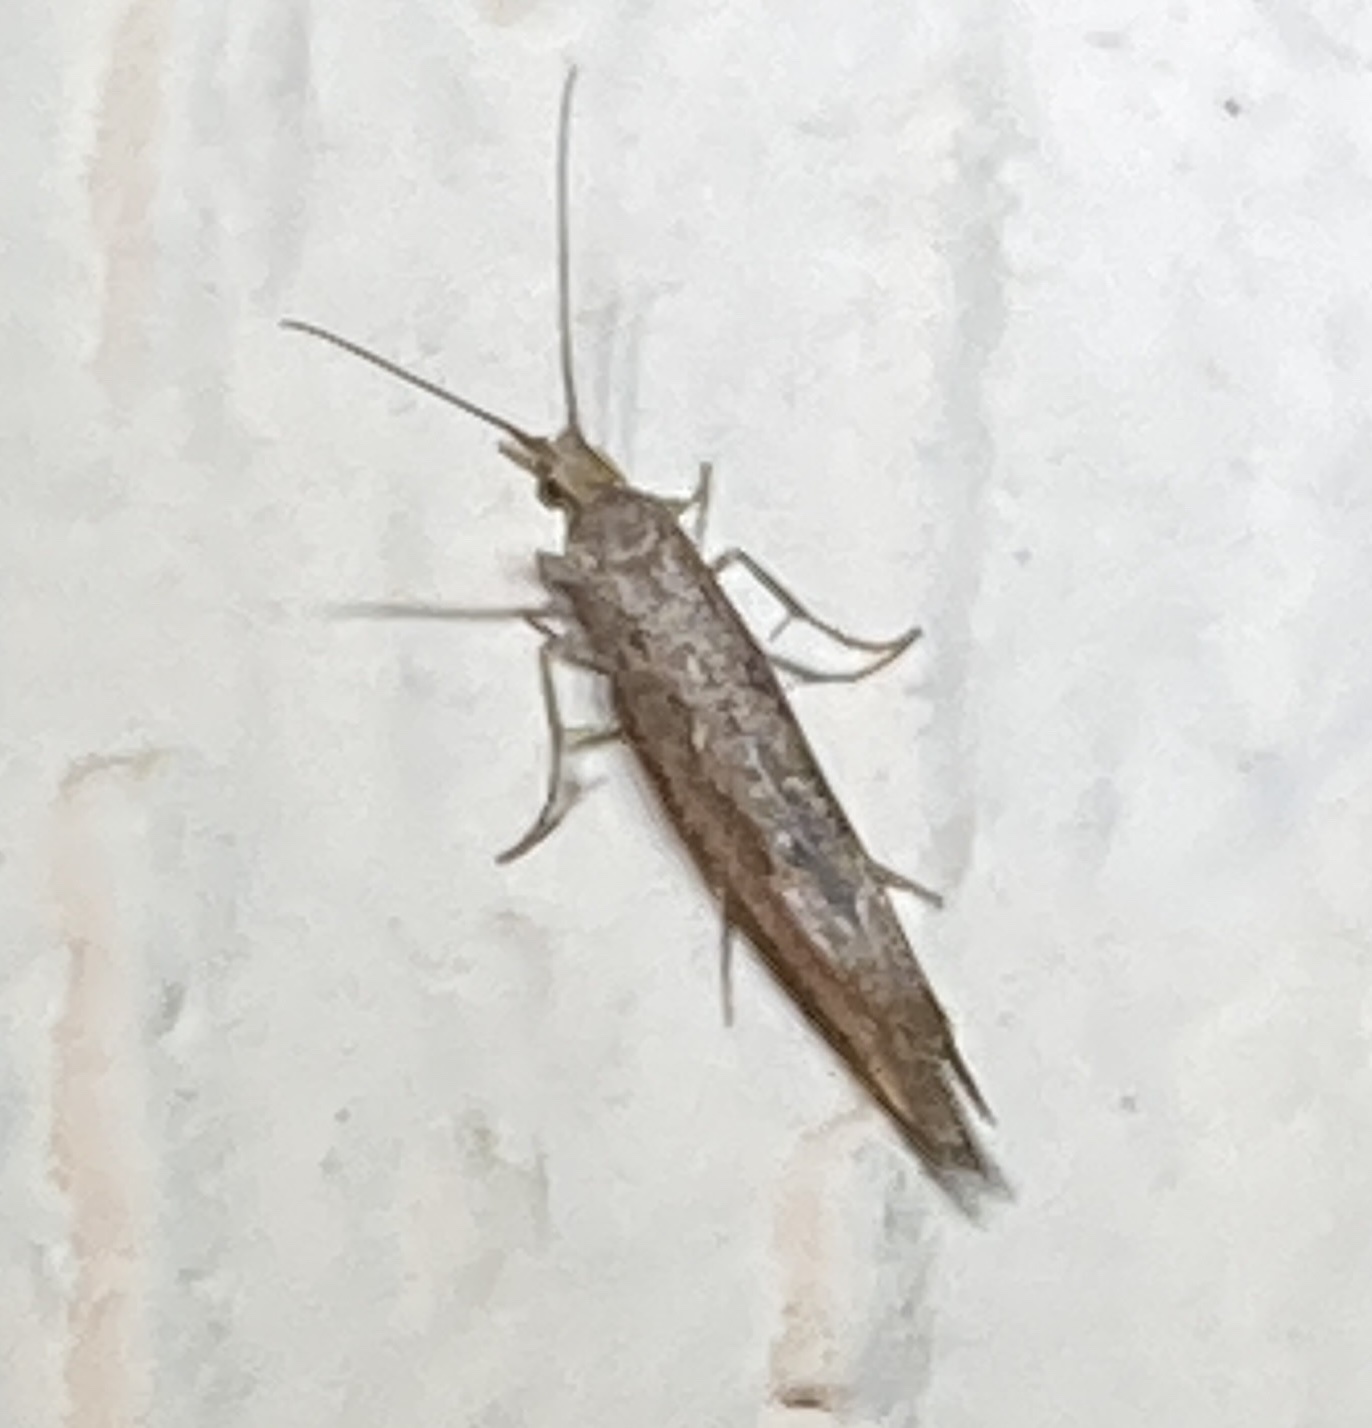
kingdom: Animalia
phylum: Arthropoda
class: Insecta
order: Lepidoptera
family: Plutellidae
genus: Plutella
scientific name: Plutella xylostella
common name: Diamond-back moth
